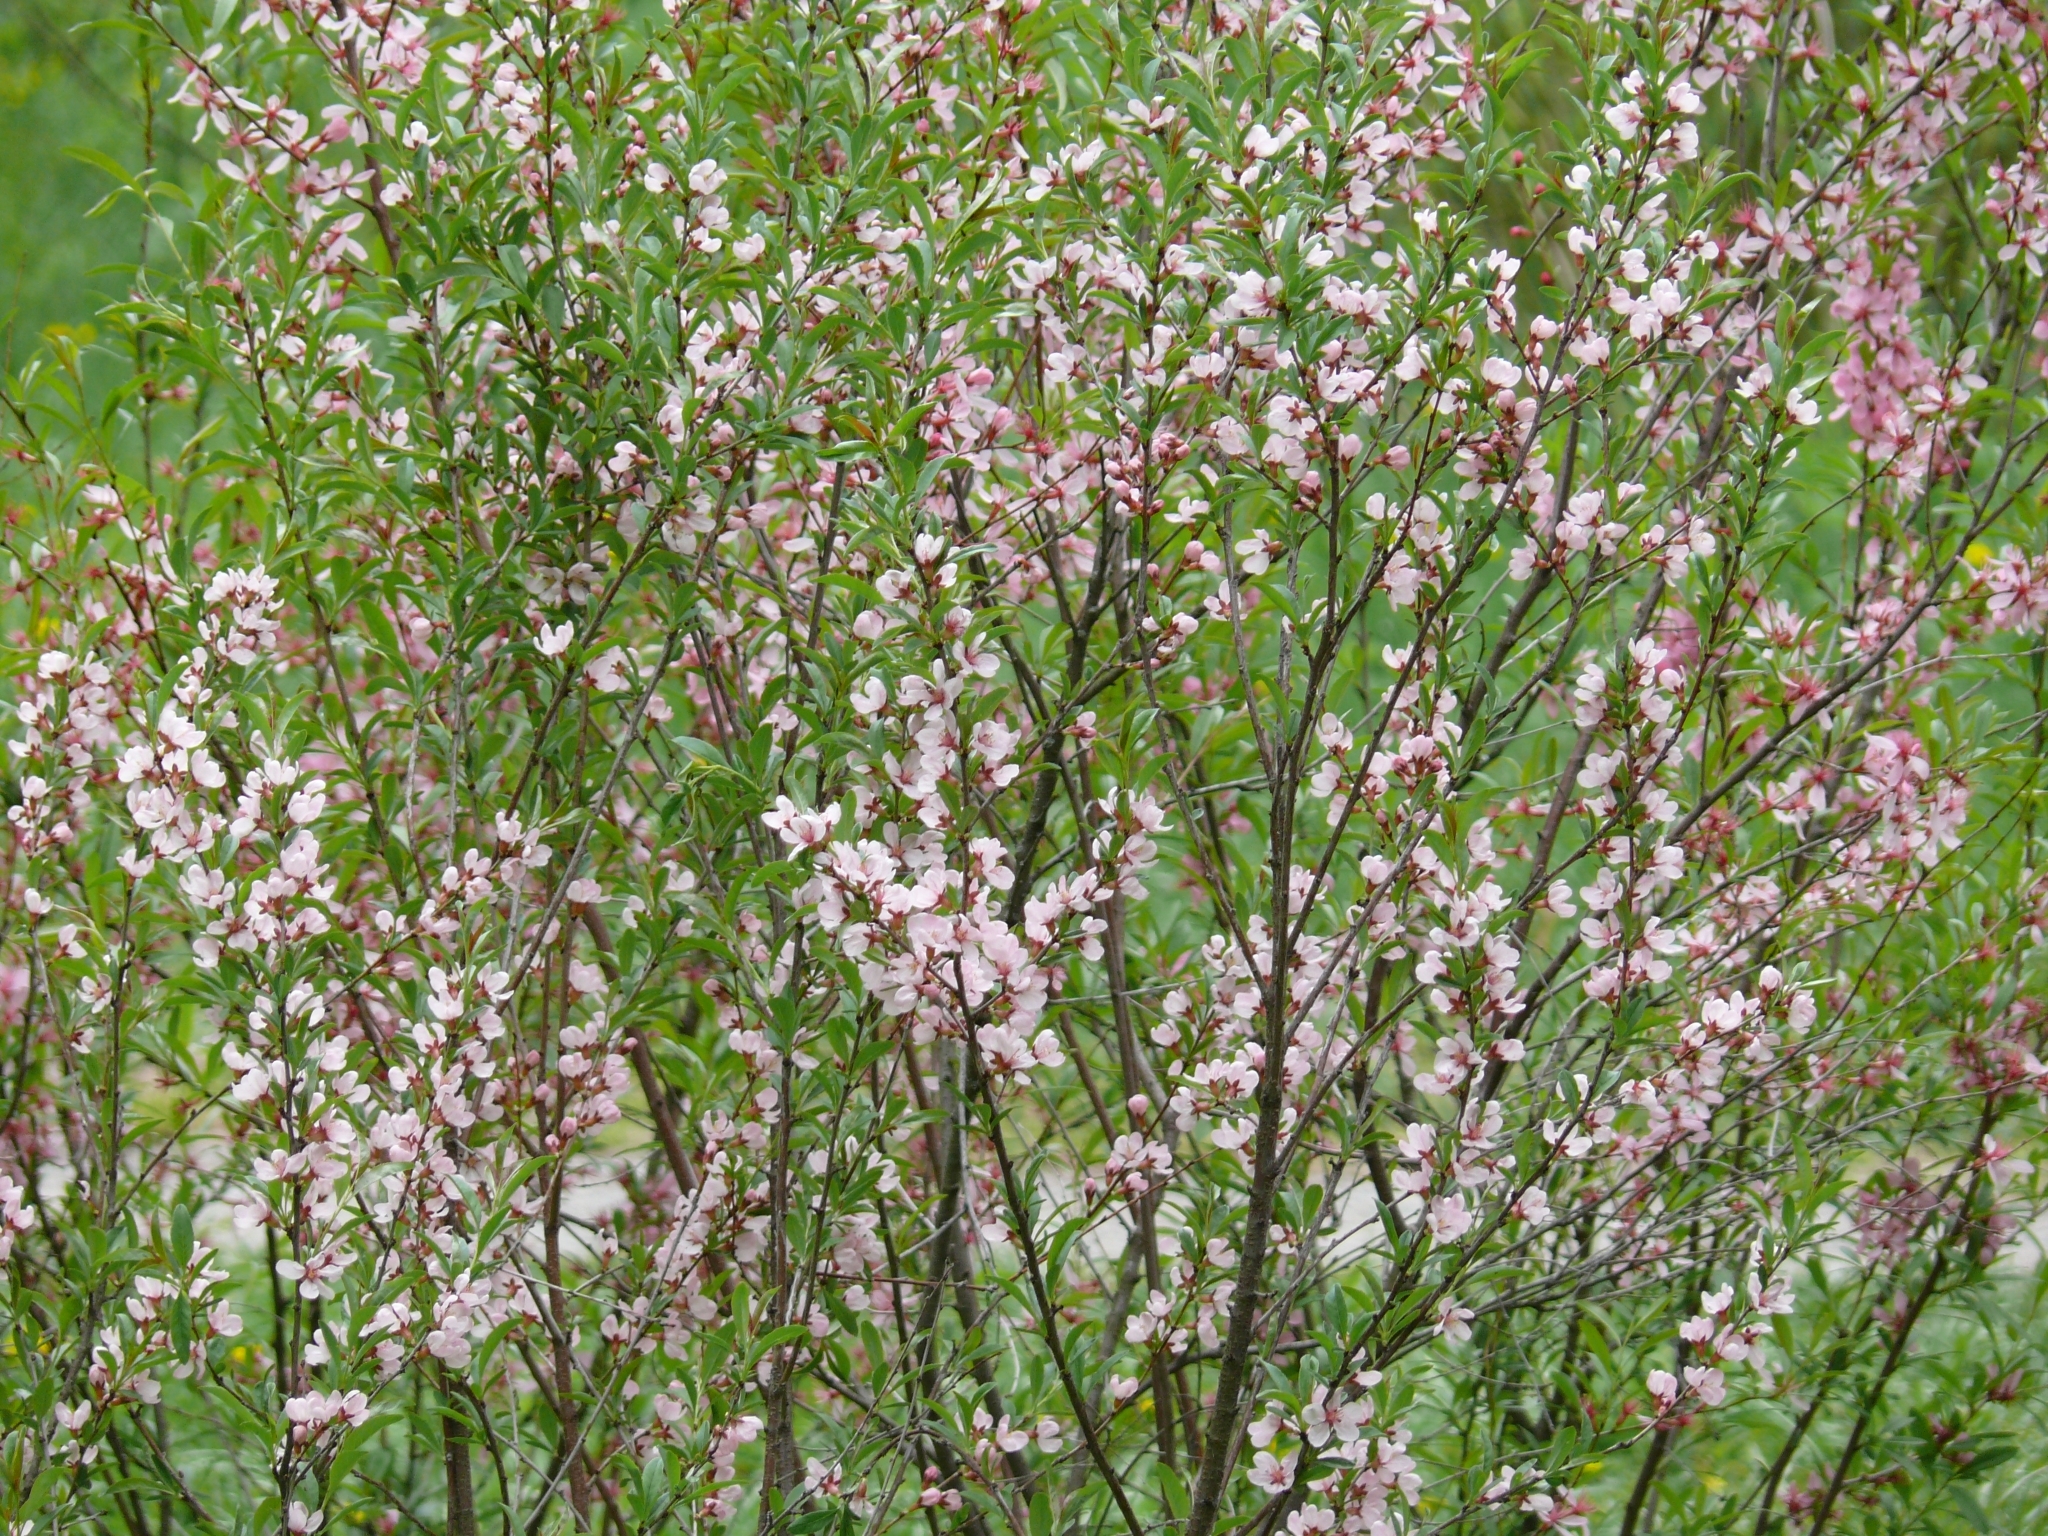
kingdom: Plantae
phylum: Tracheophyta
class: Magnoliopsida
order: Rosales
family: Rosaceae
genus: Prunus
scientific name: Prunus tenella
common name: Dwarf russian almond
